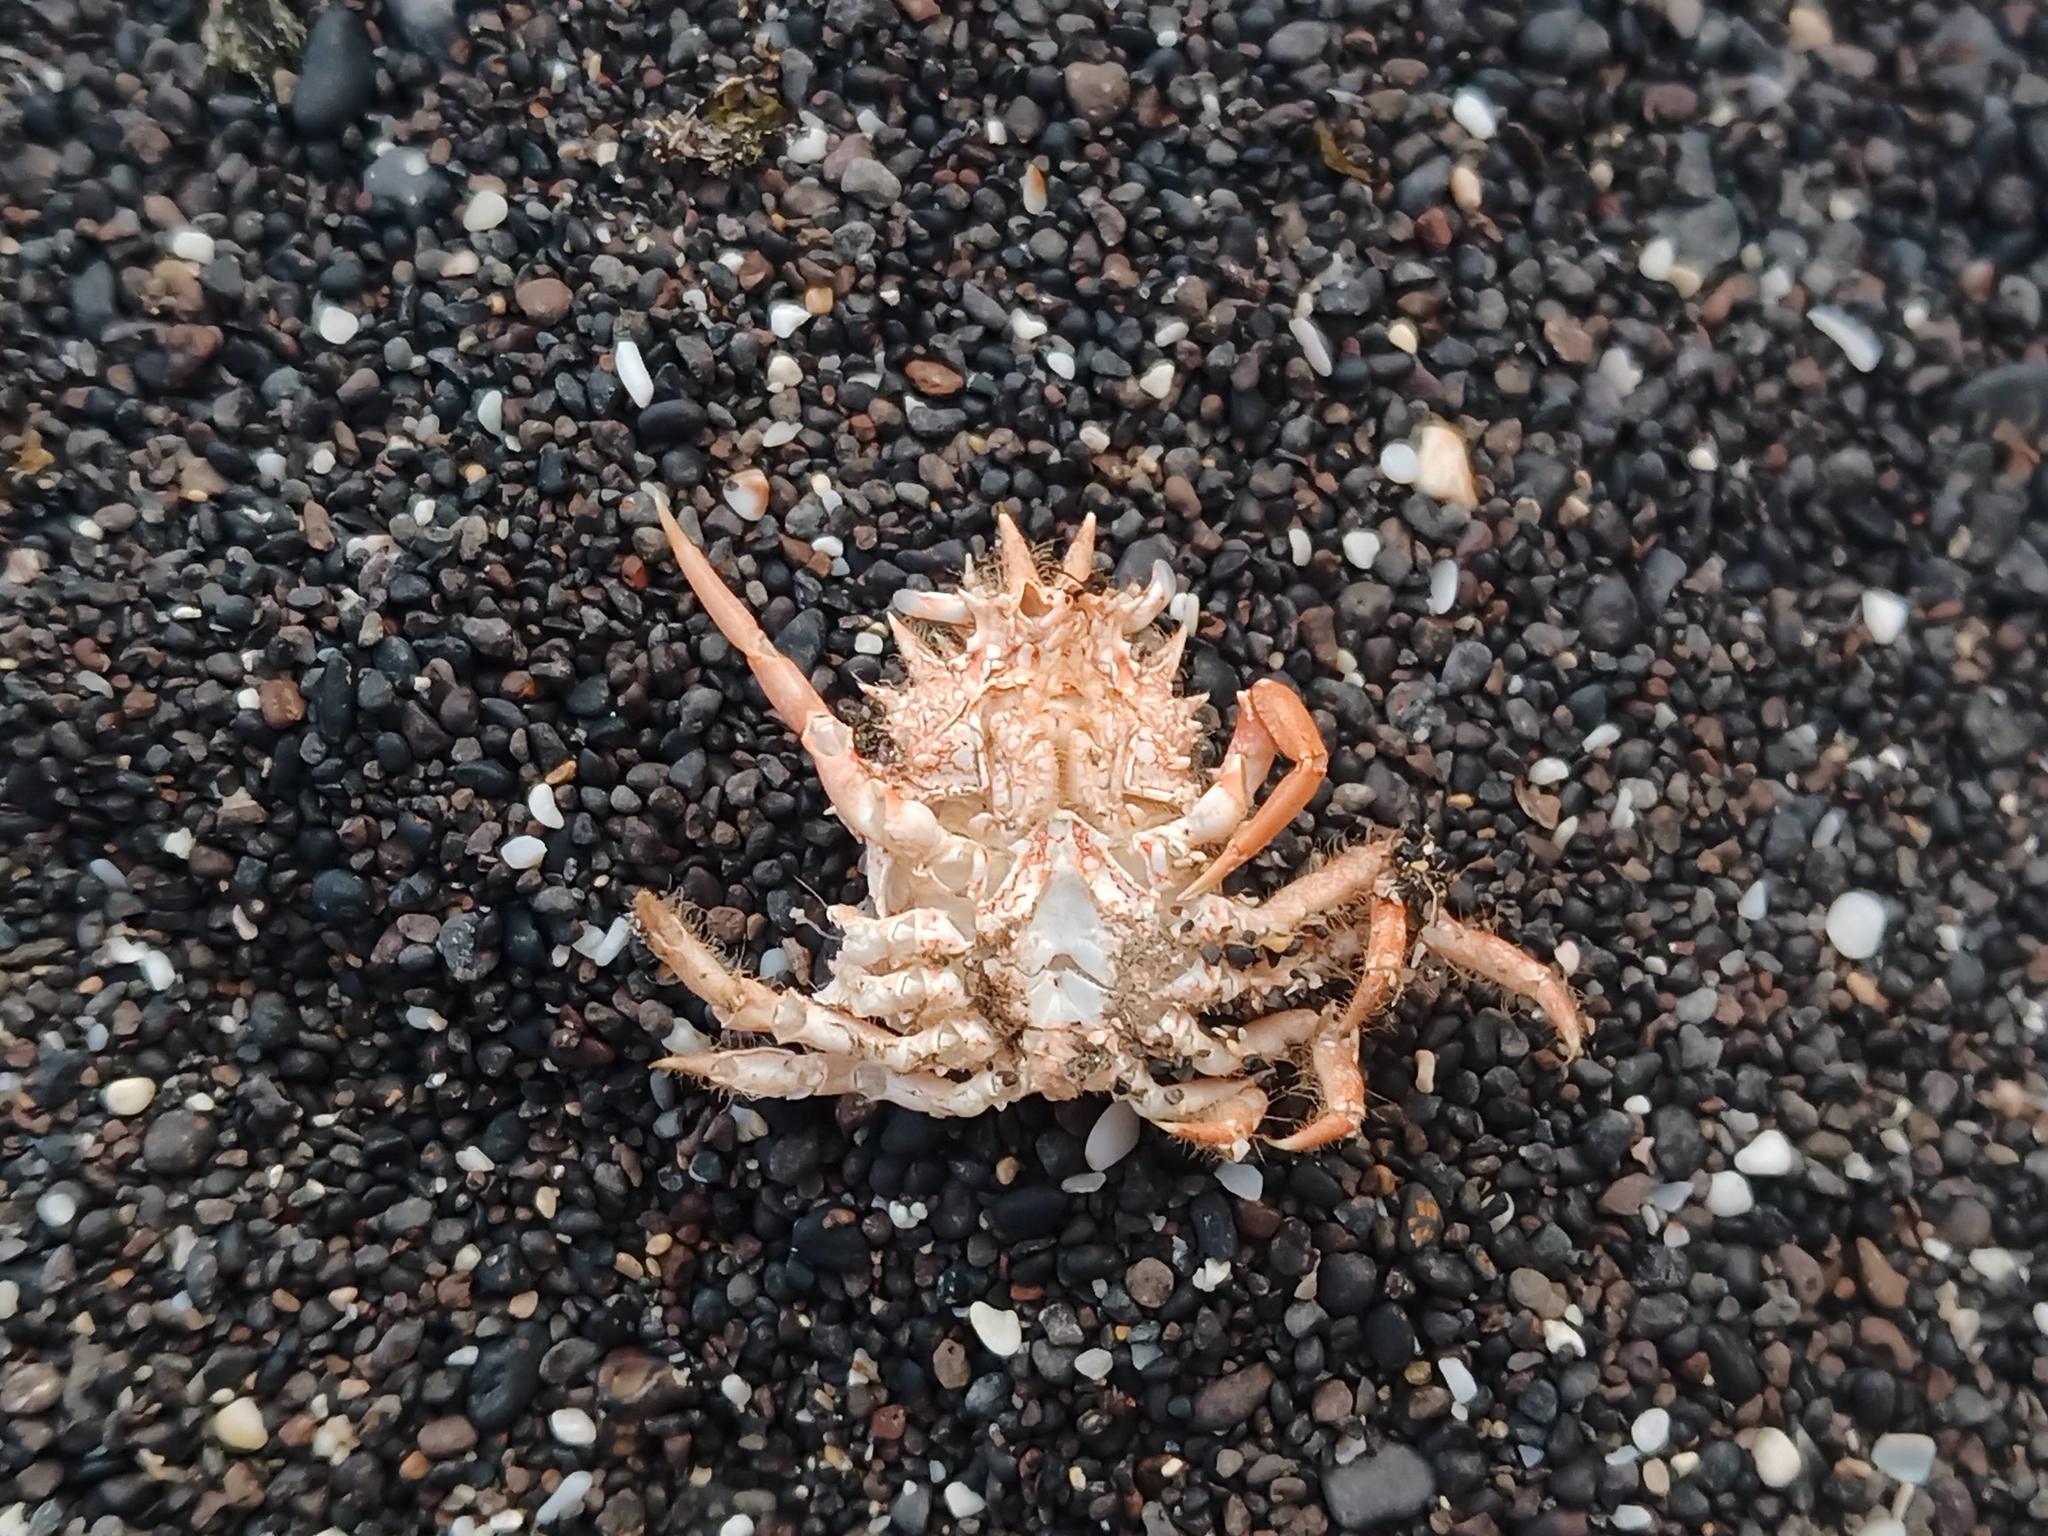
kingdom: Animalia
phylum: Arthropoda
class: Malacostraca
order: Decapoda
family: Majidae
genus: Maja
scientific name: Maja brachydactyla
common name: Common spider crab
